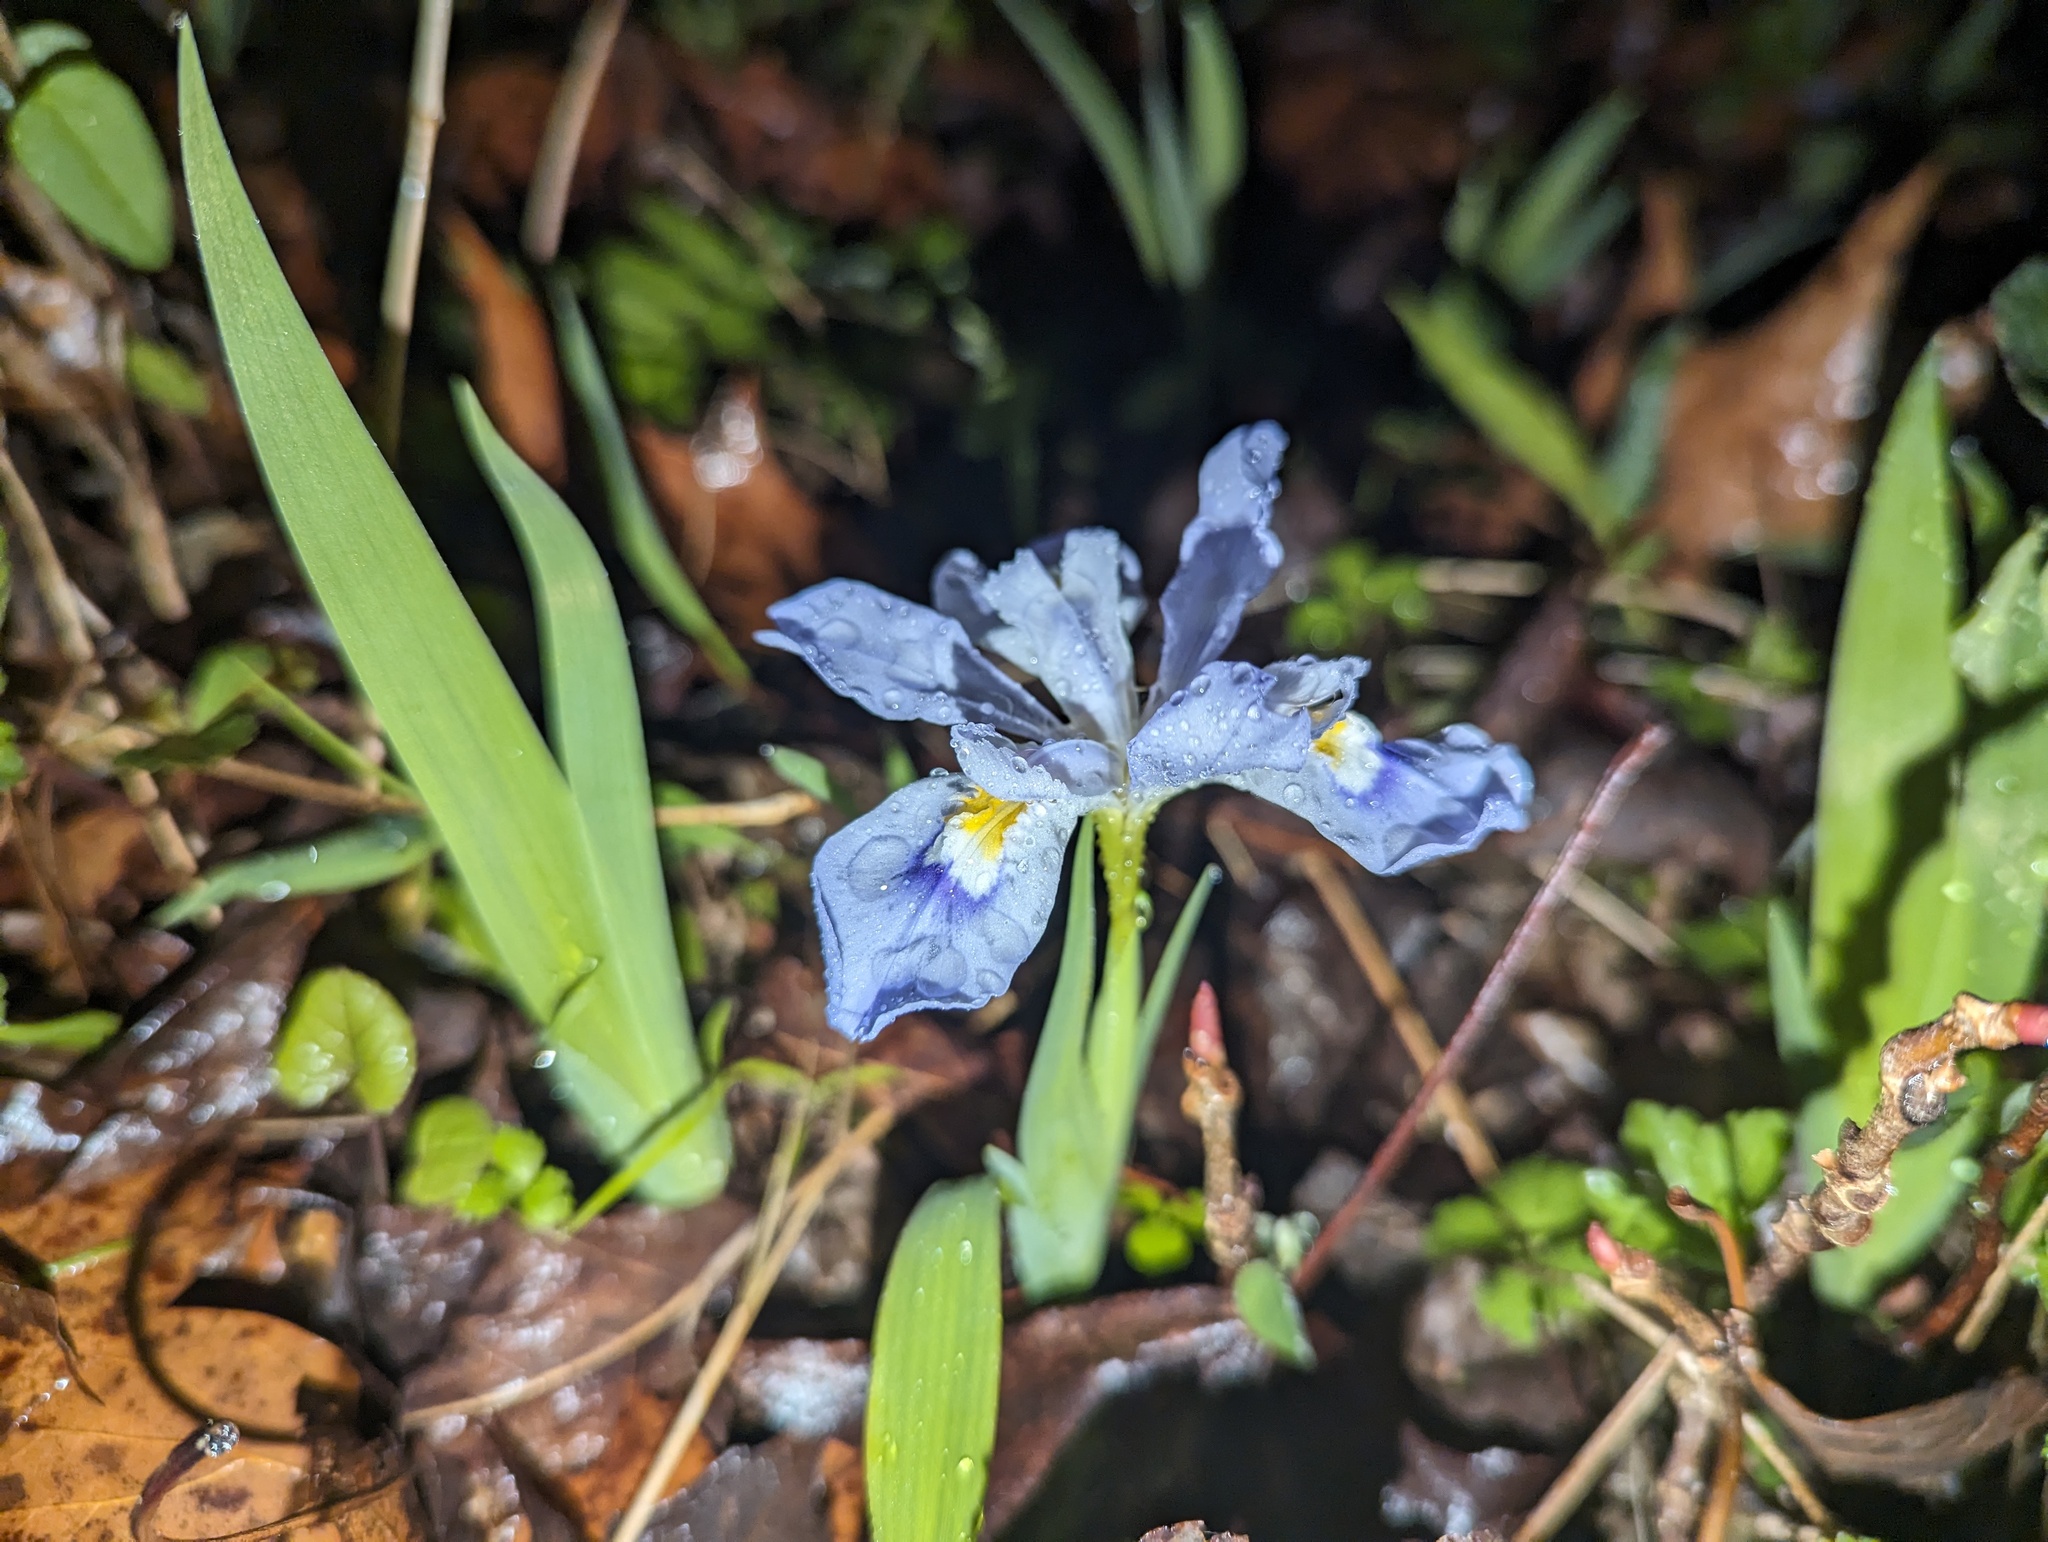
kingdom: Plantae
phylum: Tracheophyta
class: Liliopsida
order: Asparagales
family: Iridaceae
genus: Iris
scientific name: Iris cristata
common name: Crested iris
